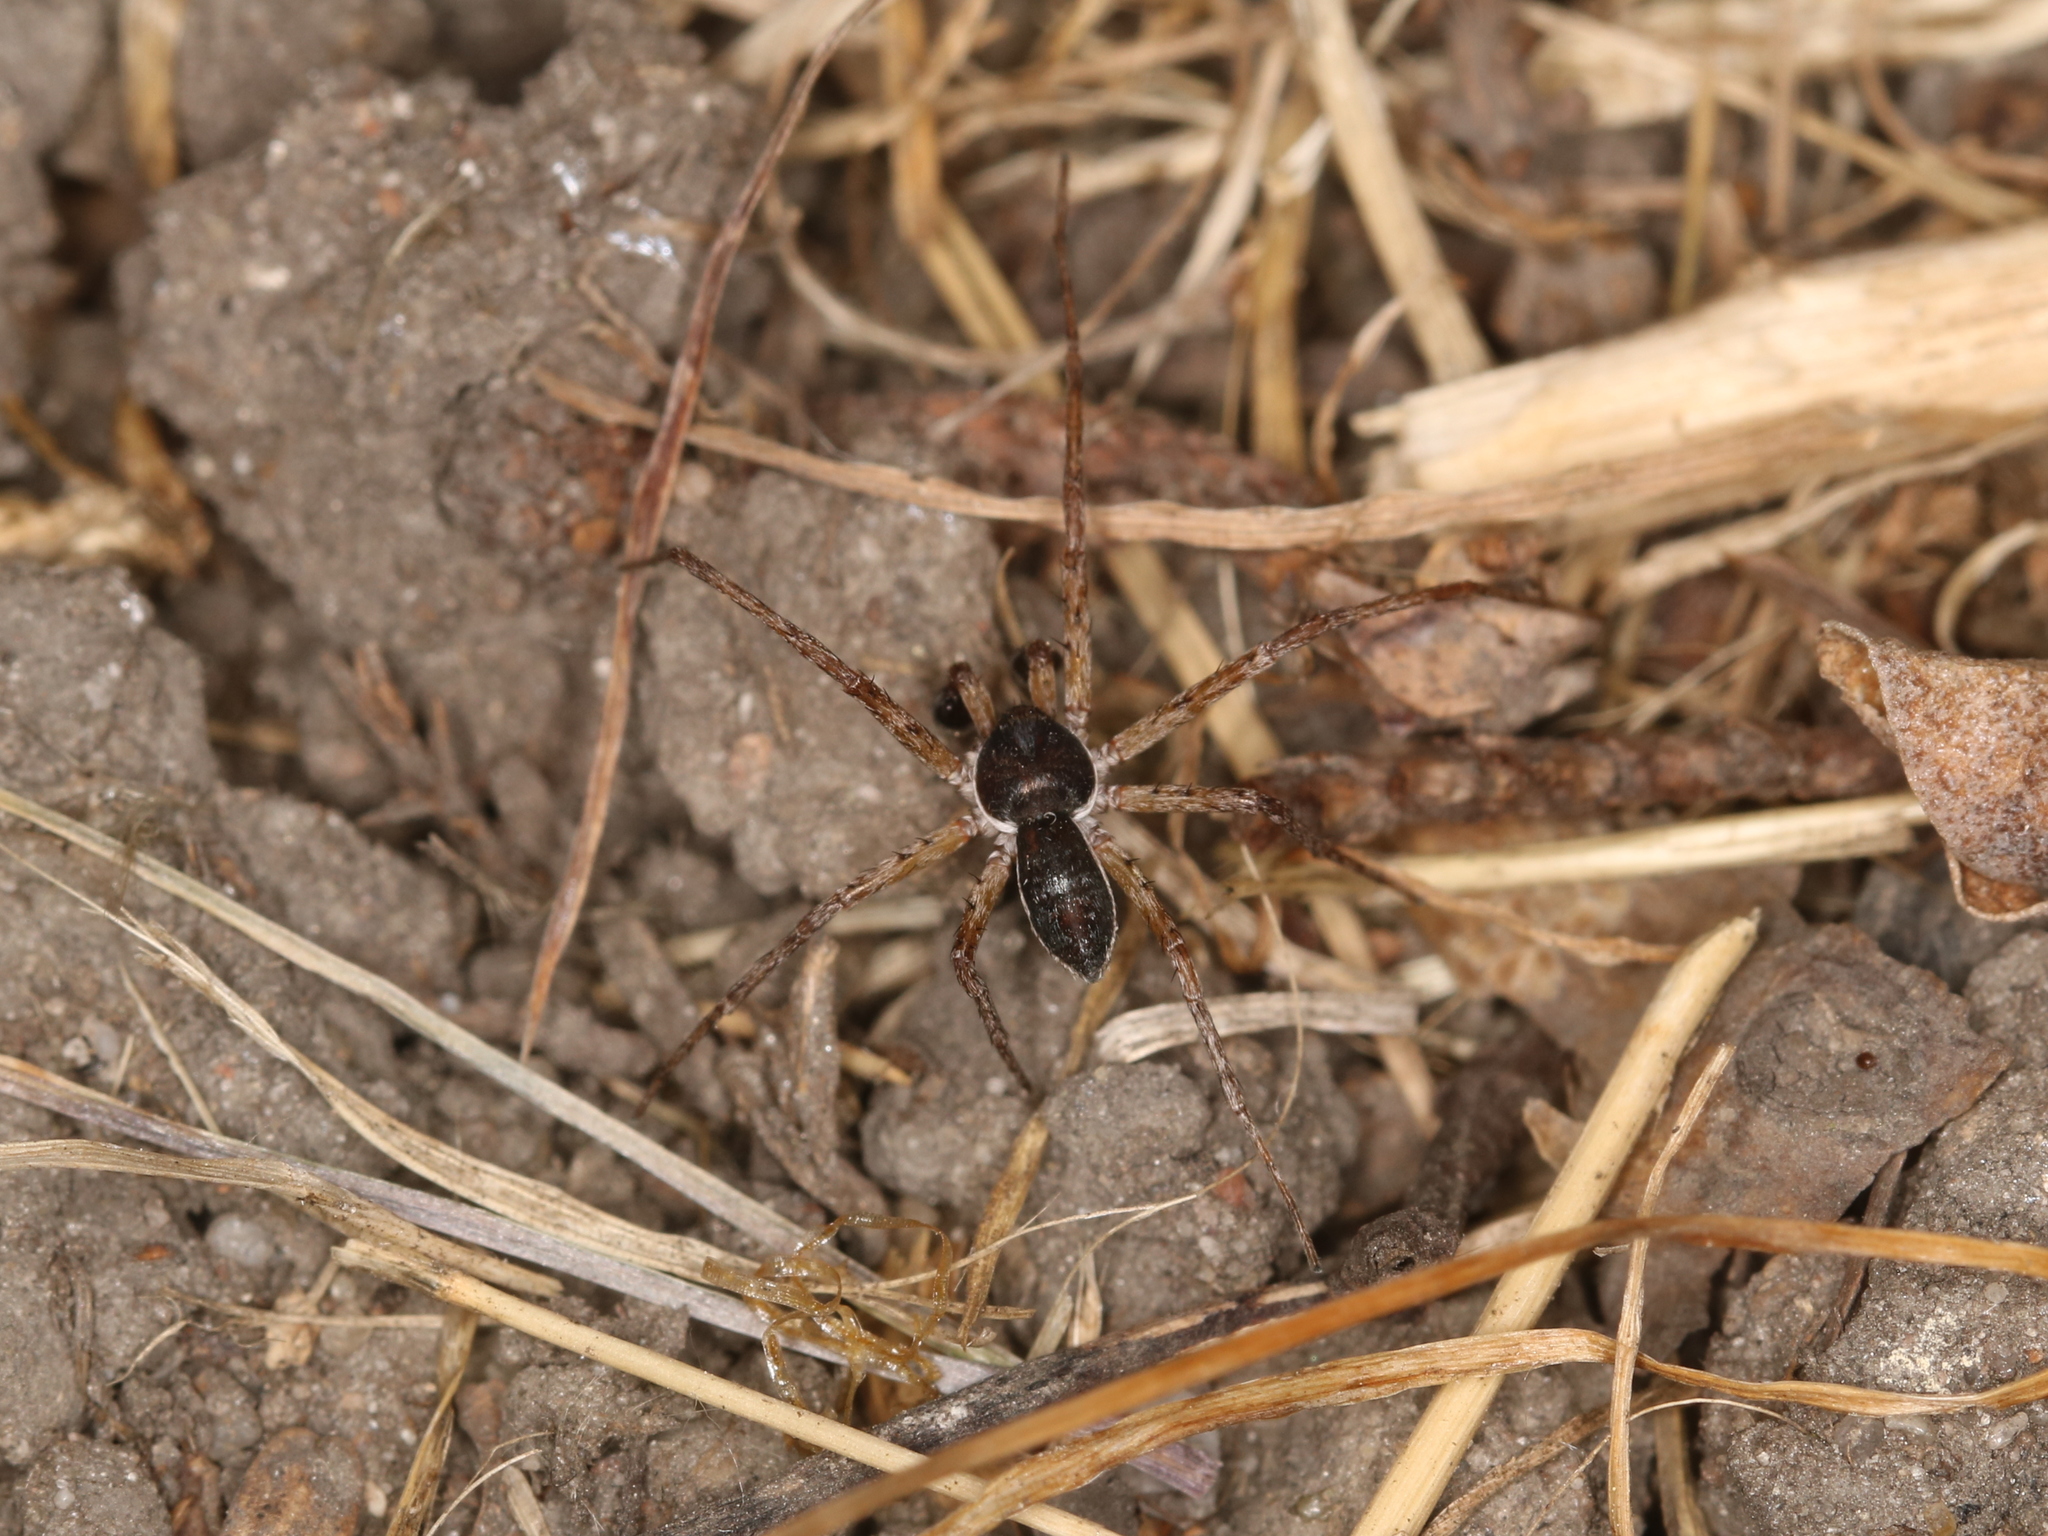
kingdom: Animalia
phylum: Arthropoda
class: Arachnida
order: Araneae
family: Philodromidae
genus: Philodromus
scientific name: Philodromus dispar
